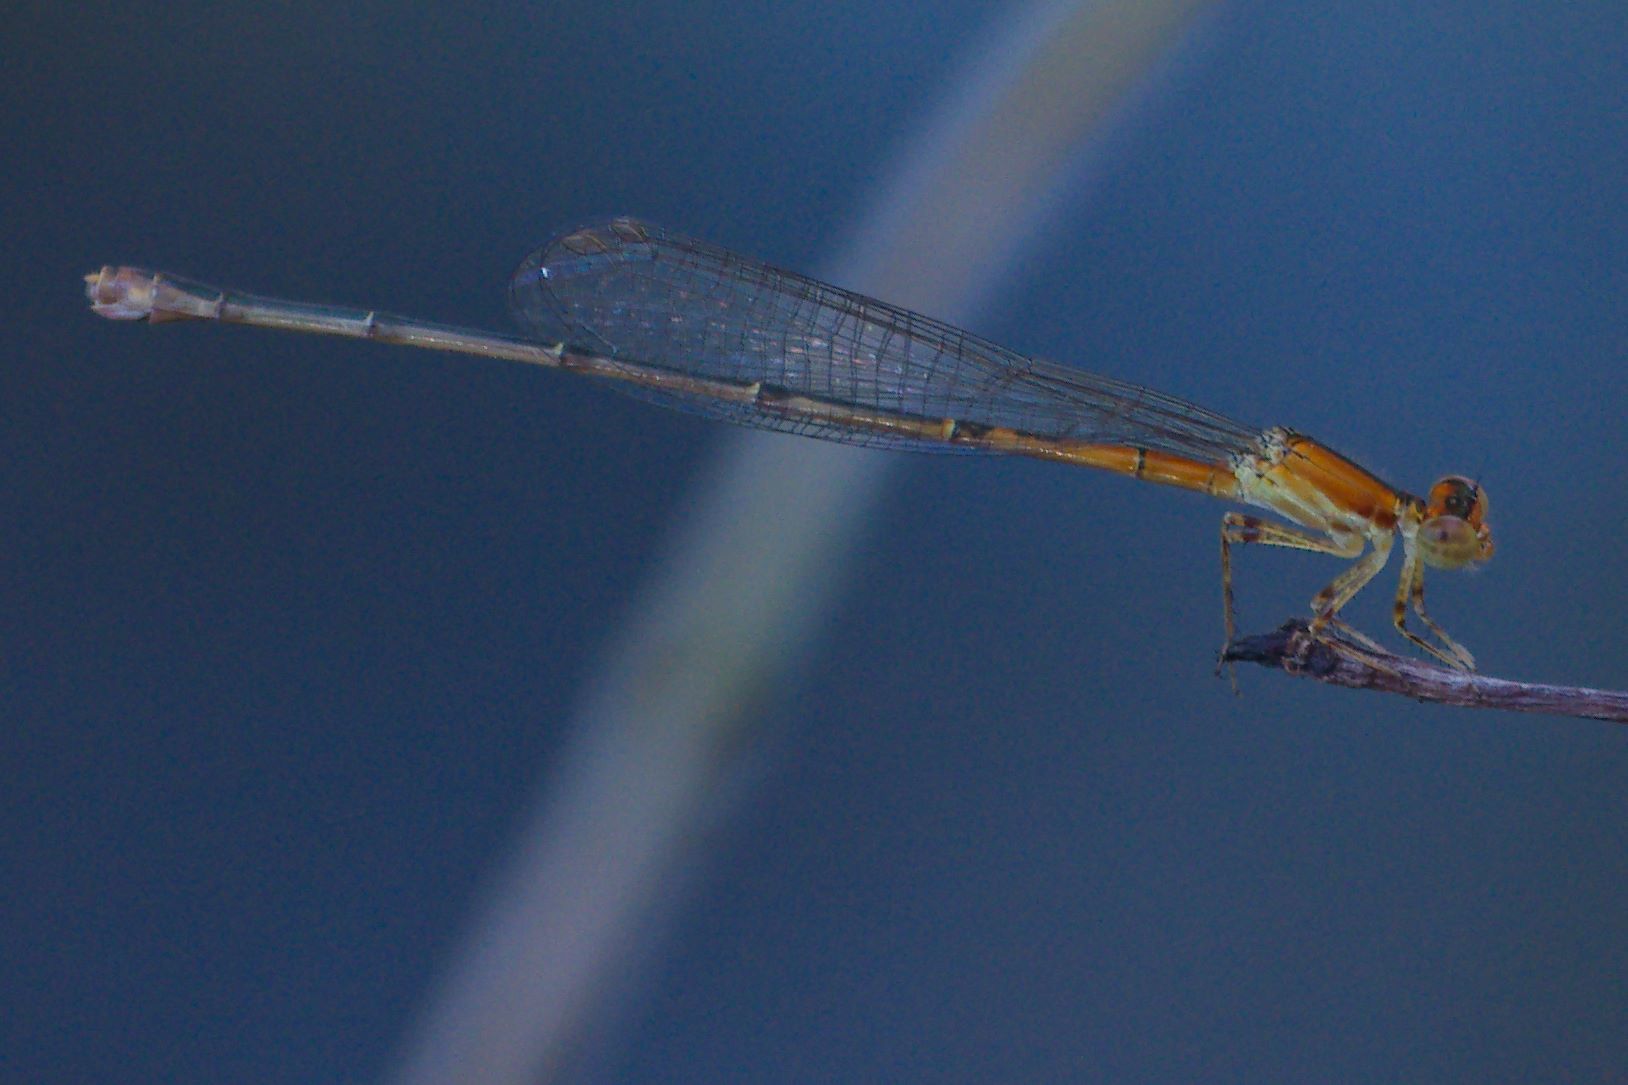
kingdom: Animalia
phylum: Arthropoda
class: Insecta
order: Odonata
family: Coenagrionidae
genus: Ischnura
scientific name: Ischnura prognata
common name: Furtive forktail
